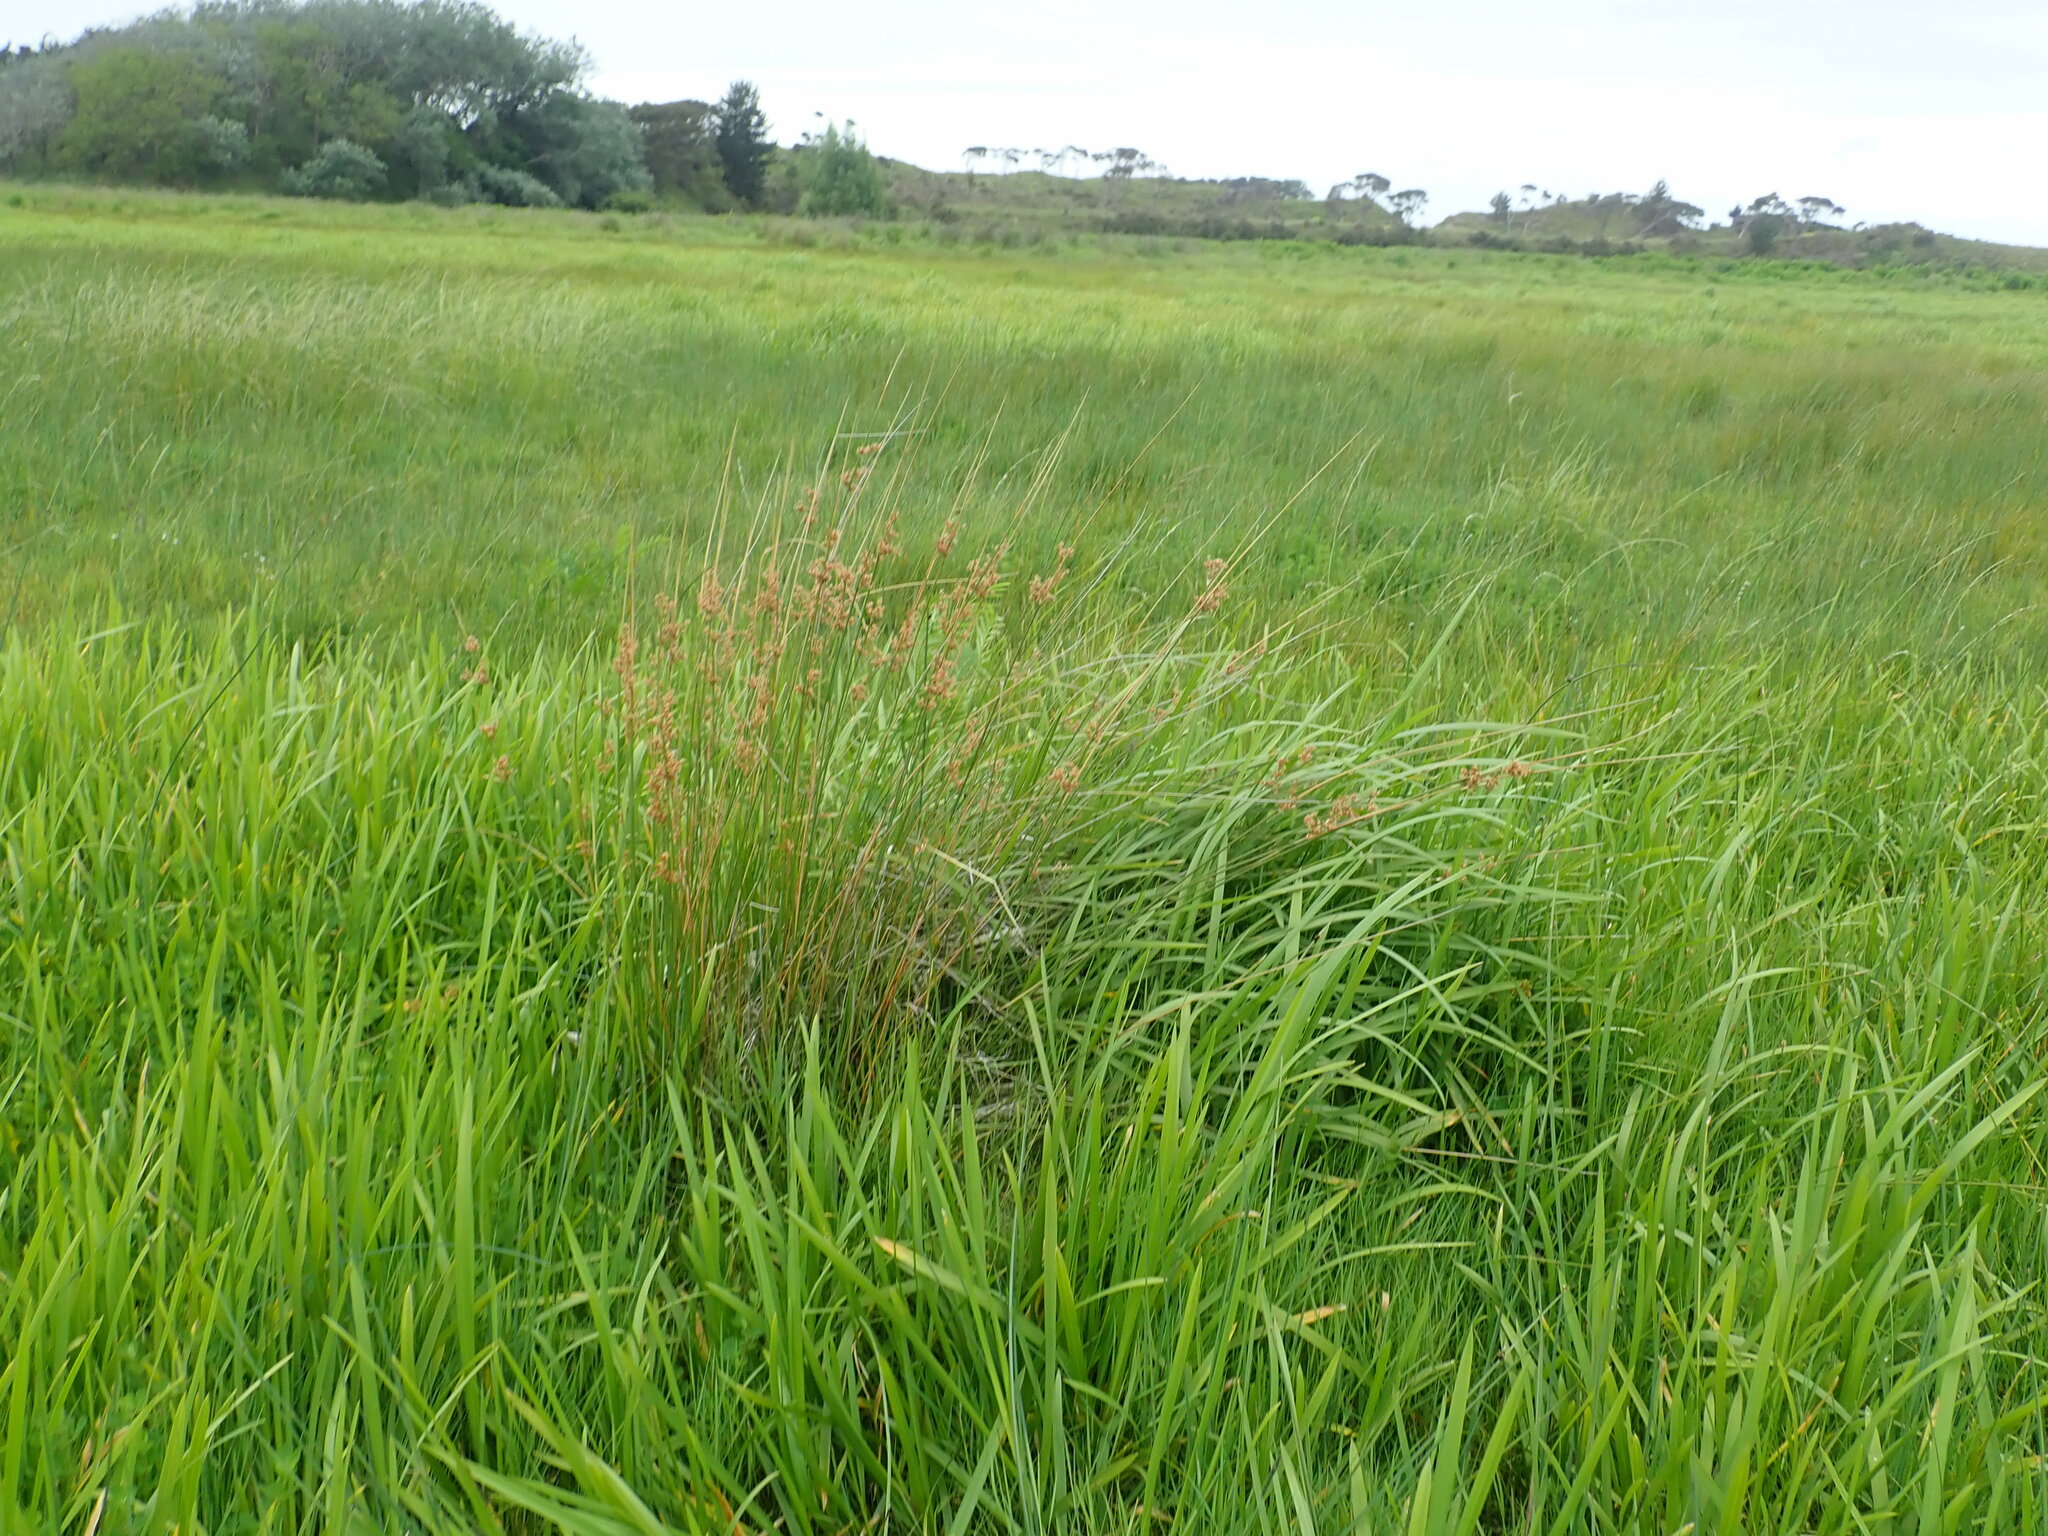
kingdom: Plantae
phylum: Tracheophyta
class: Liliopsida
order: Poales
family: Juncaceae
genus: Juncus
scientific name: Juncus sarophorus
